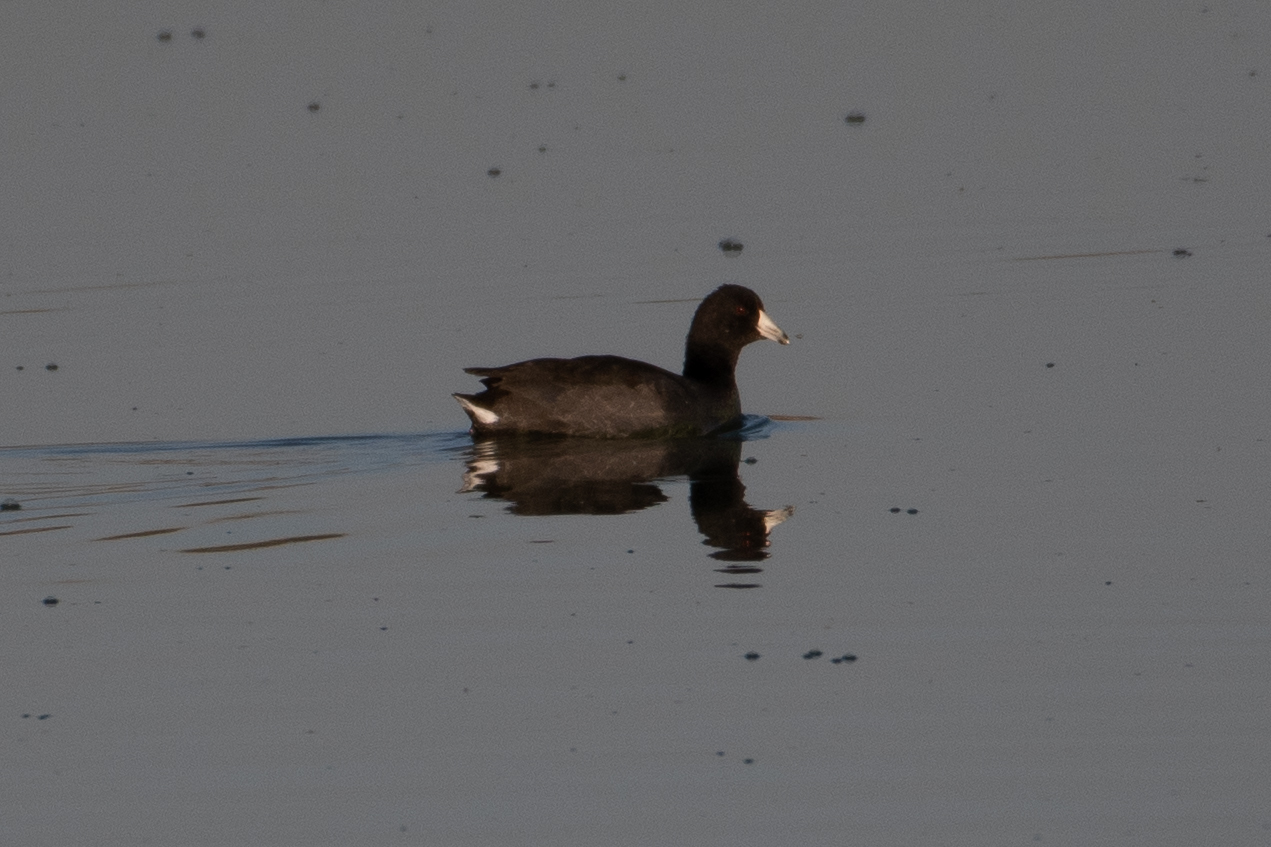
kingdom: Animalia
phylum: Chordata
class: Aves
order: Gruiformes
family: Rallidae
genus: Fulica
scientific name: Fulica americana
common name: American coot
